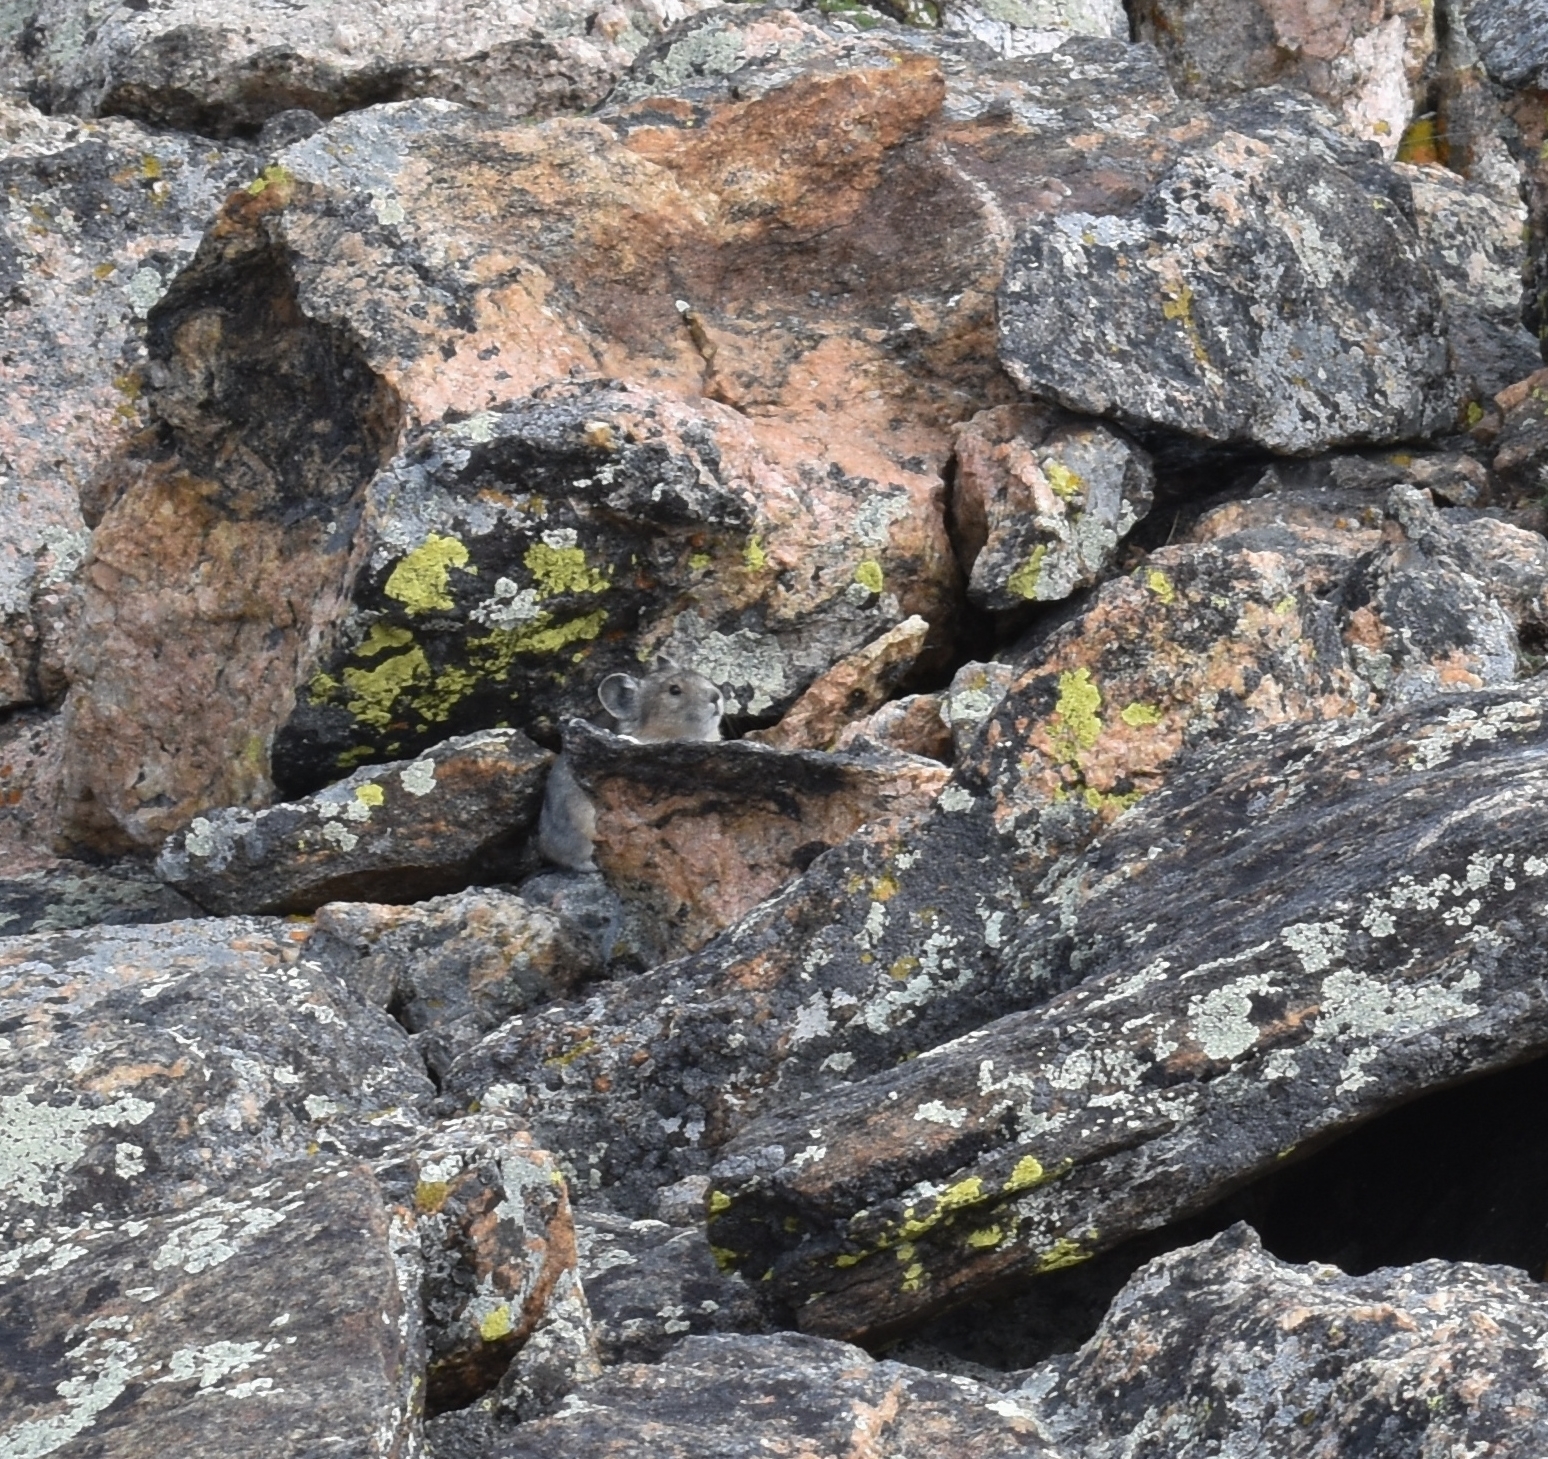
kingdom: Animalia
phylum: Chordata
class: Mammalia
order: Lagomorpha
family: Ochotonidae
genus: Ochotona
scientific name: Ochotona princeps
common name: American pika
